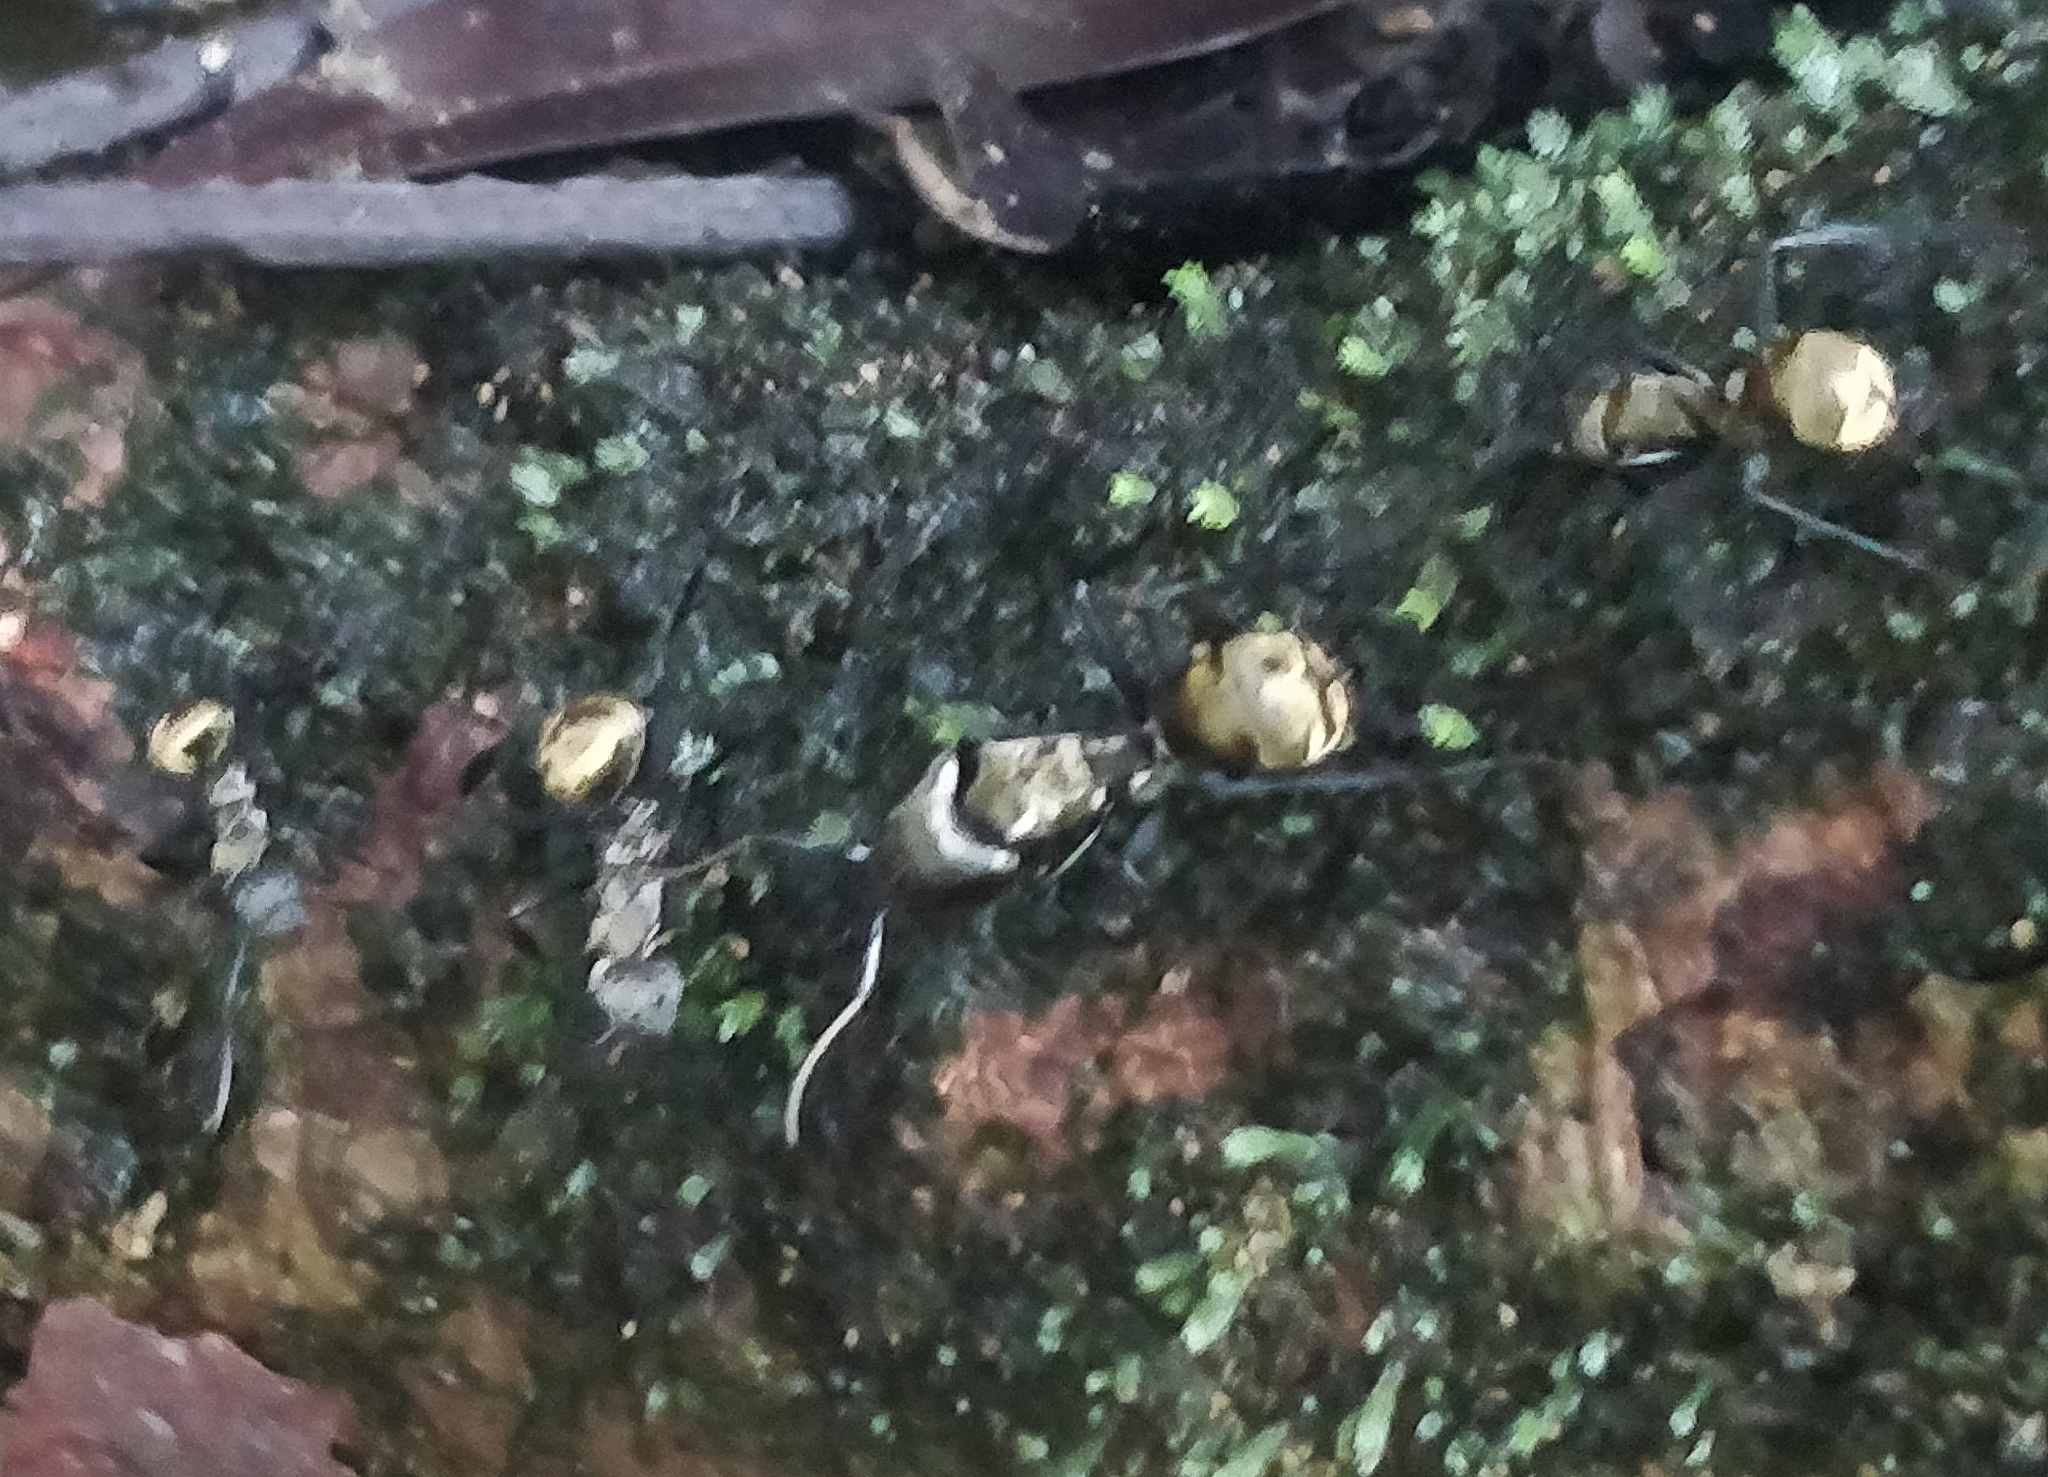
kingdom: Animalia
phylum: Arthropoda
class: Insecta
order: Hymenoptera
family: Formicidae
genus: Camponotus
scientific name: Camponotus sericeiventris
